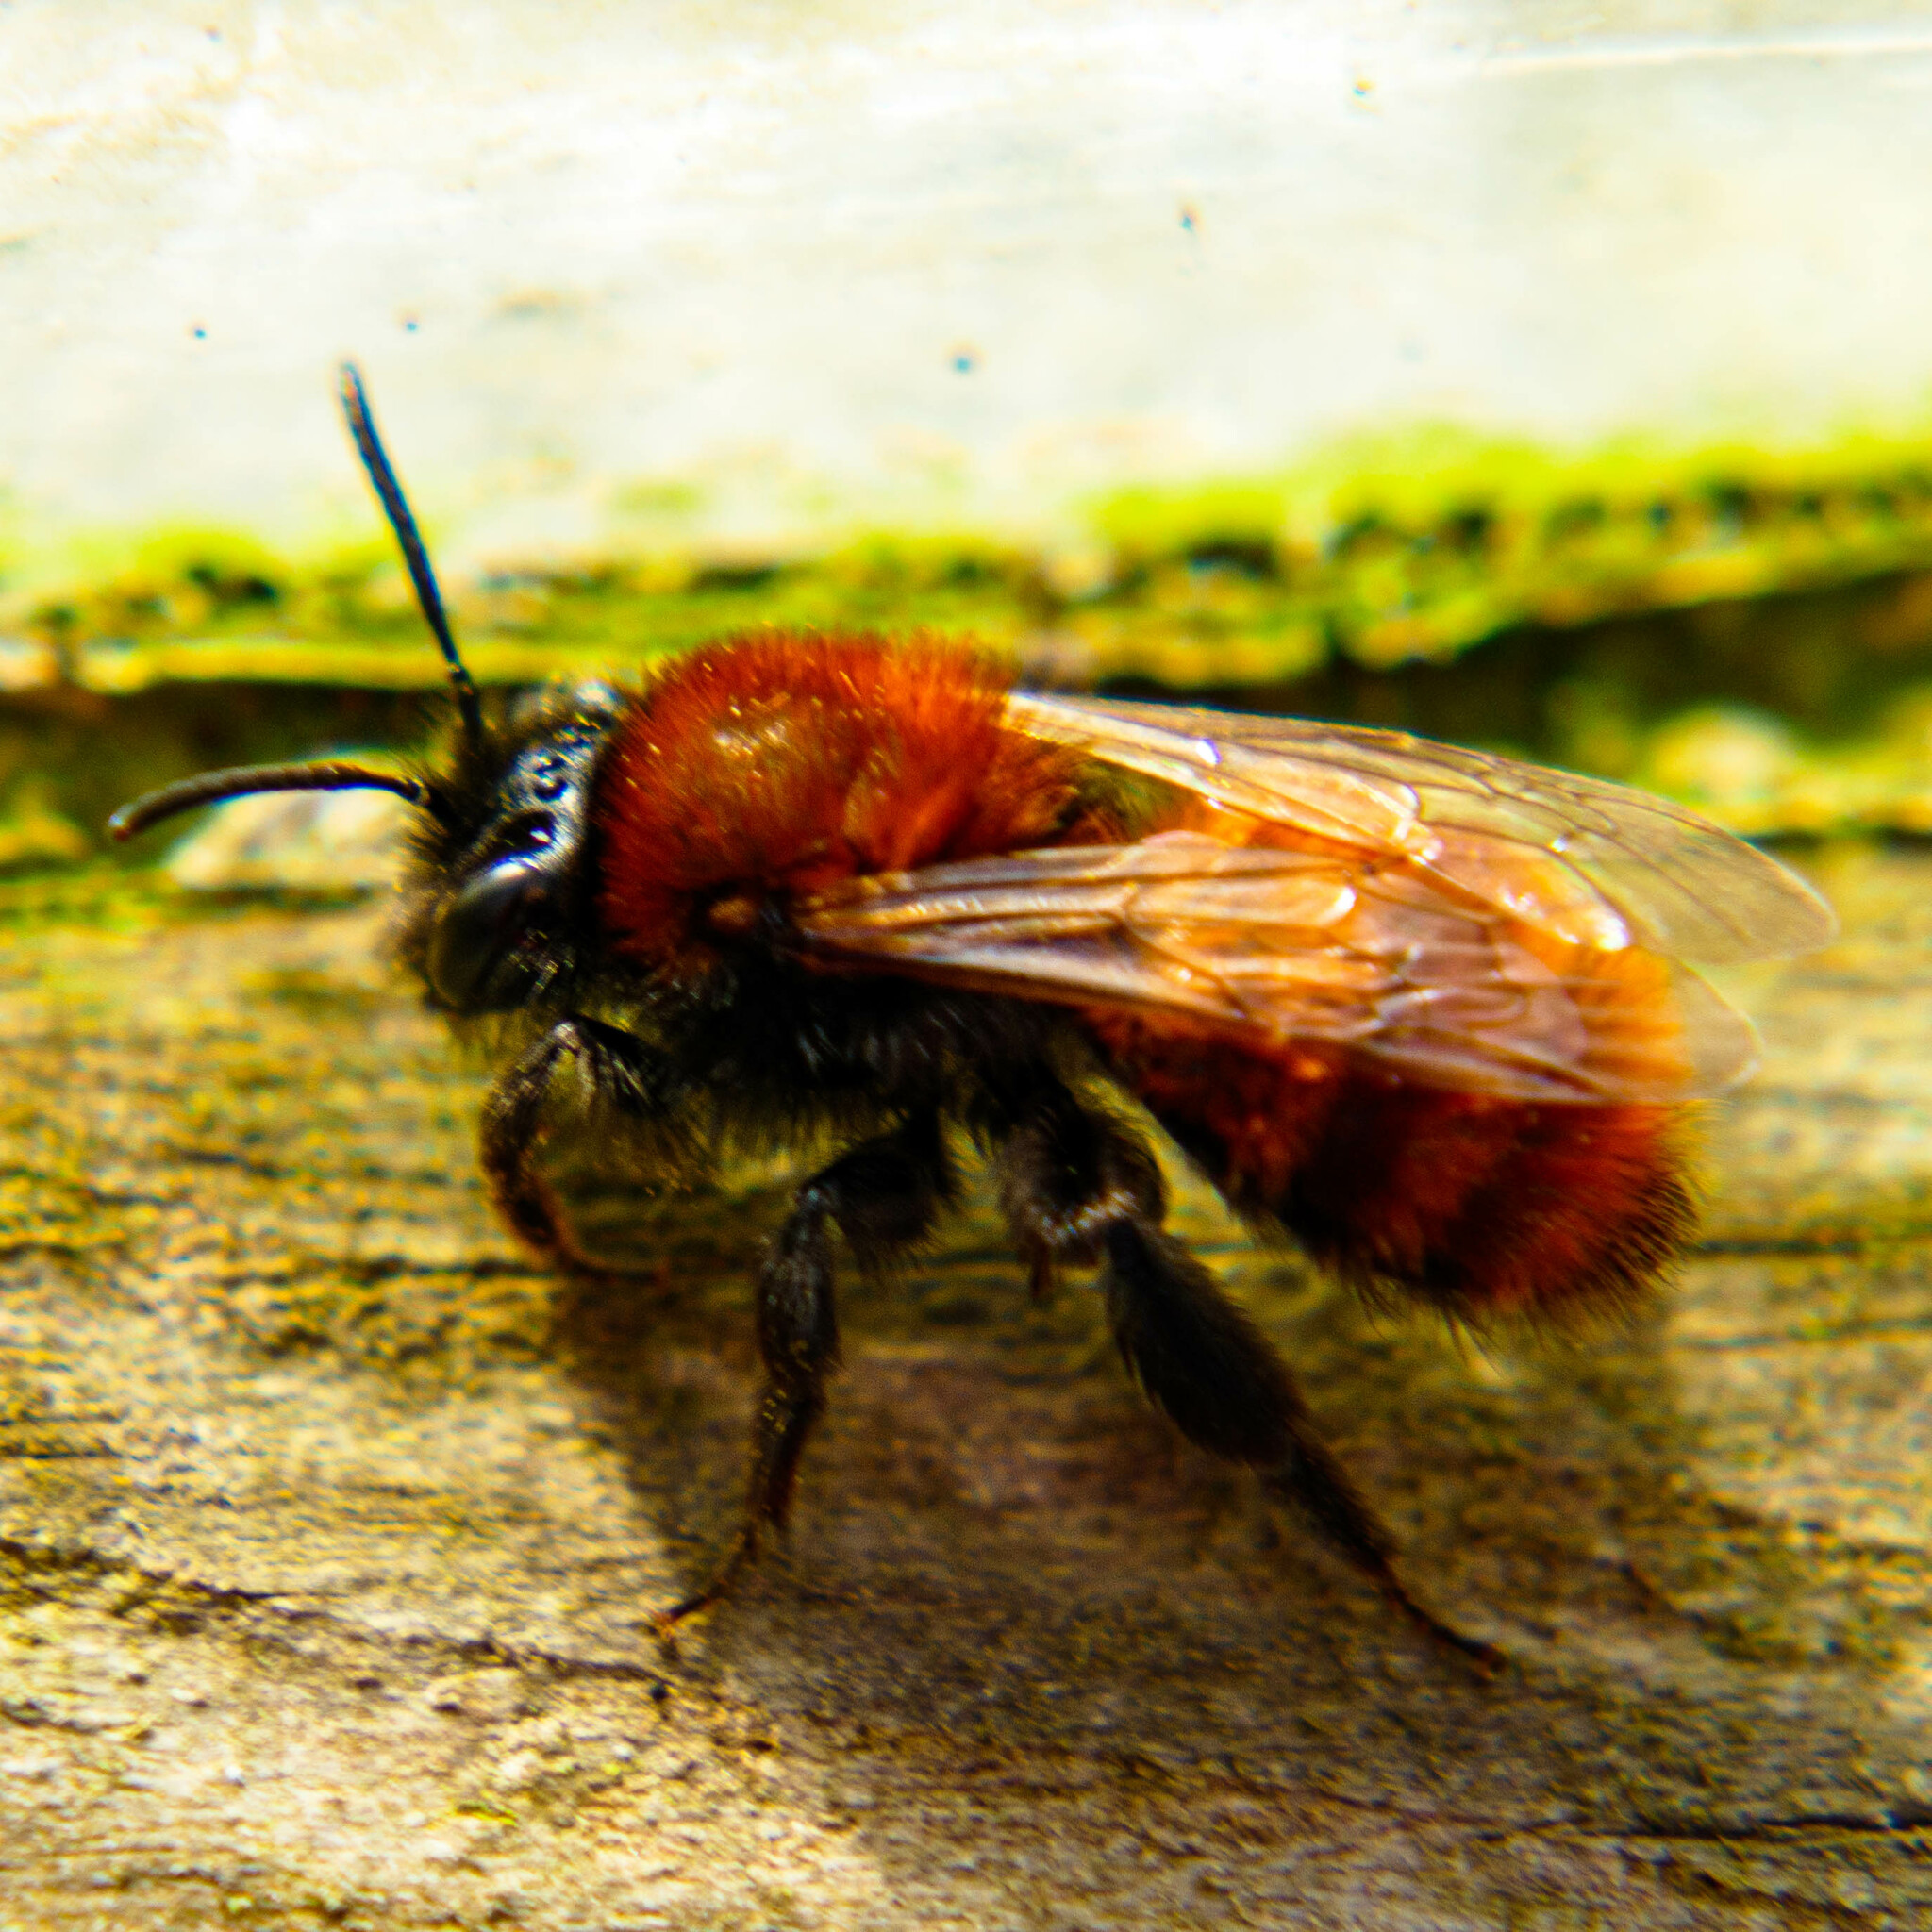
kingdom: Animalia
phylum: Arthropoda
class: Insecta
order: Hymenoptera
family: Andrenidae
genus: Andrena
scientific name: Andrena fulva
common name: Tawny mining bee
